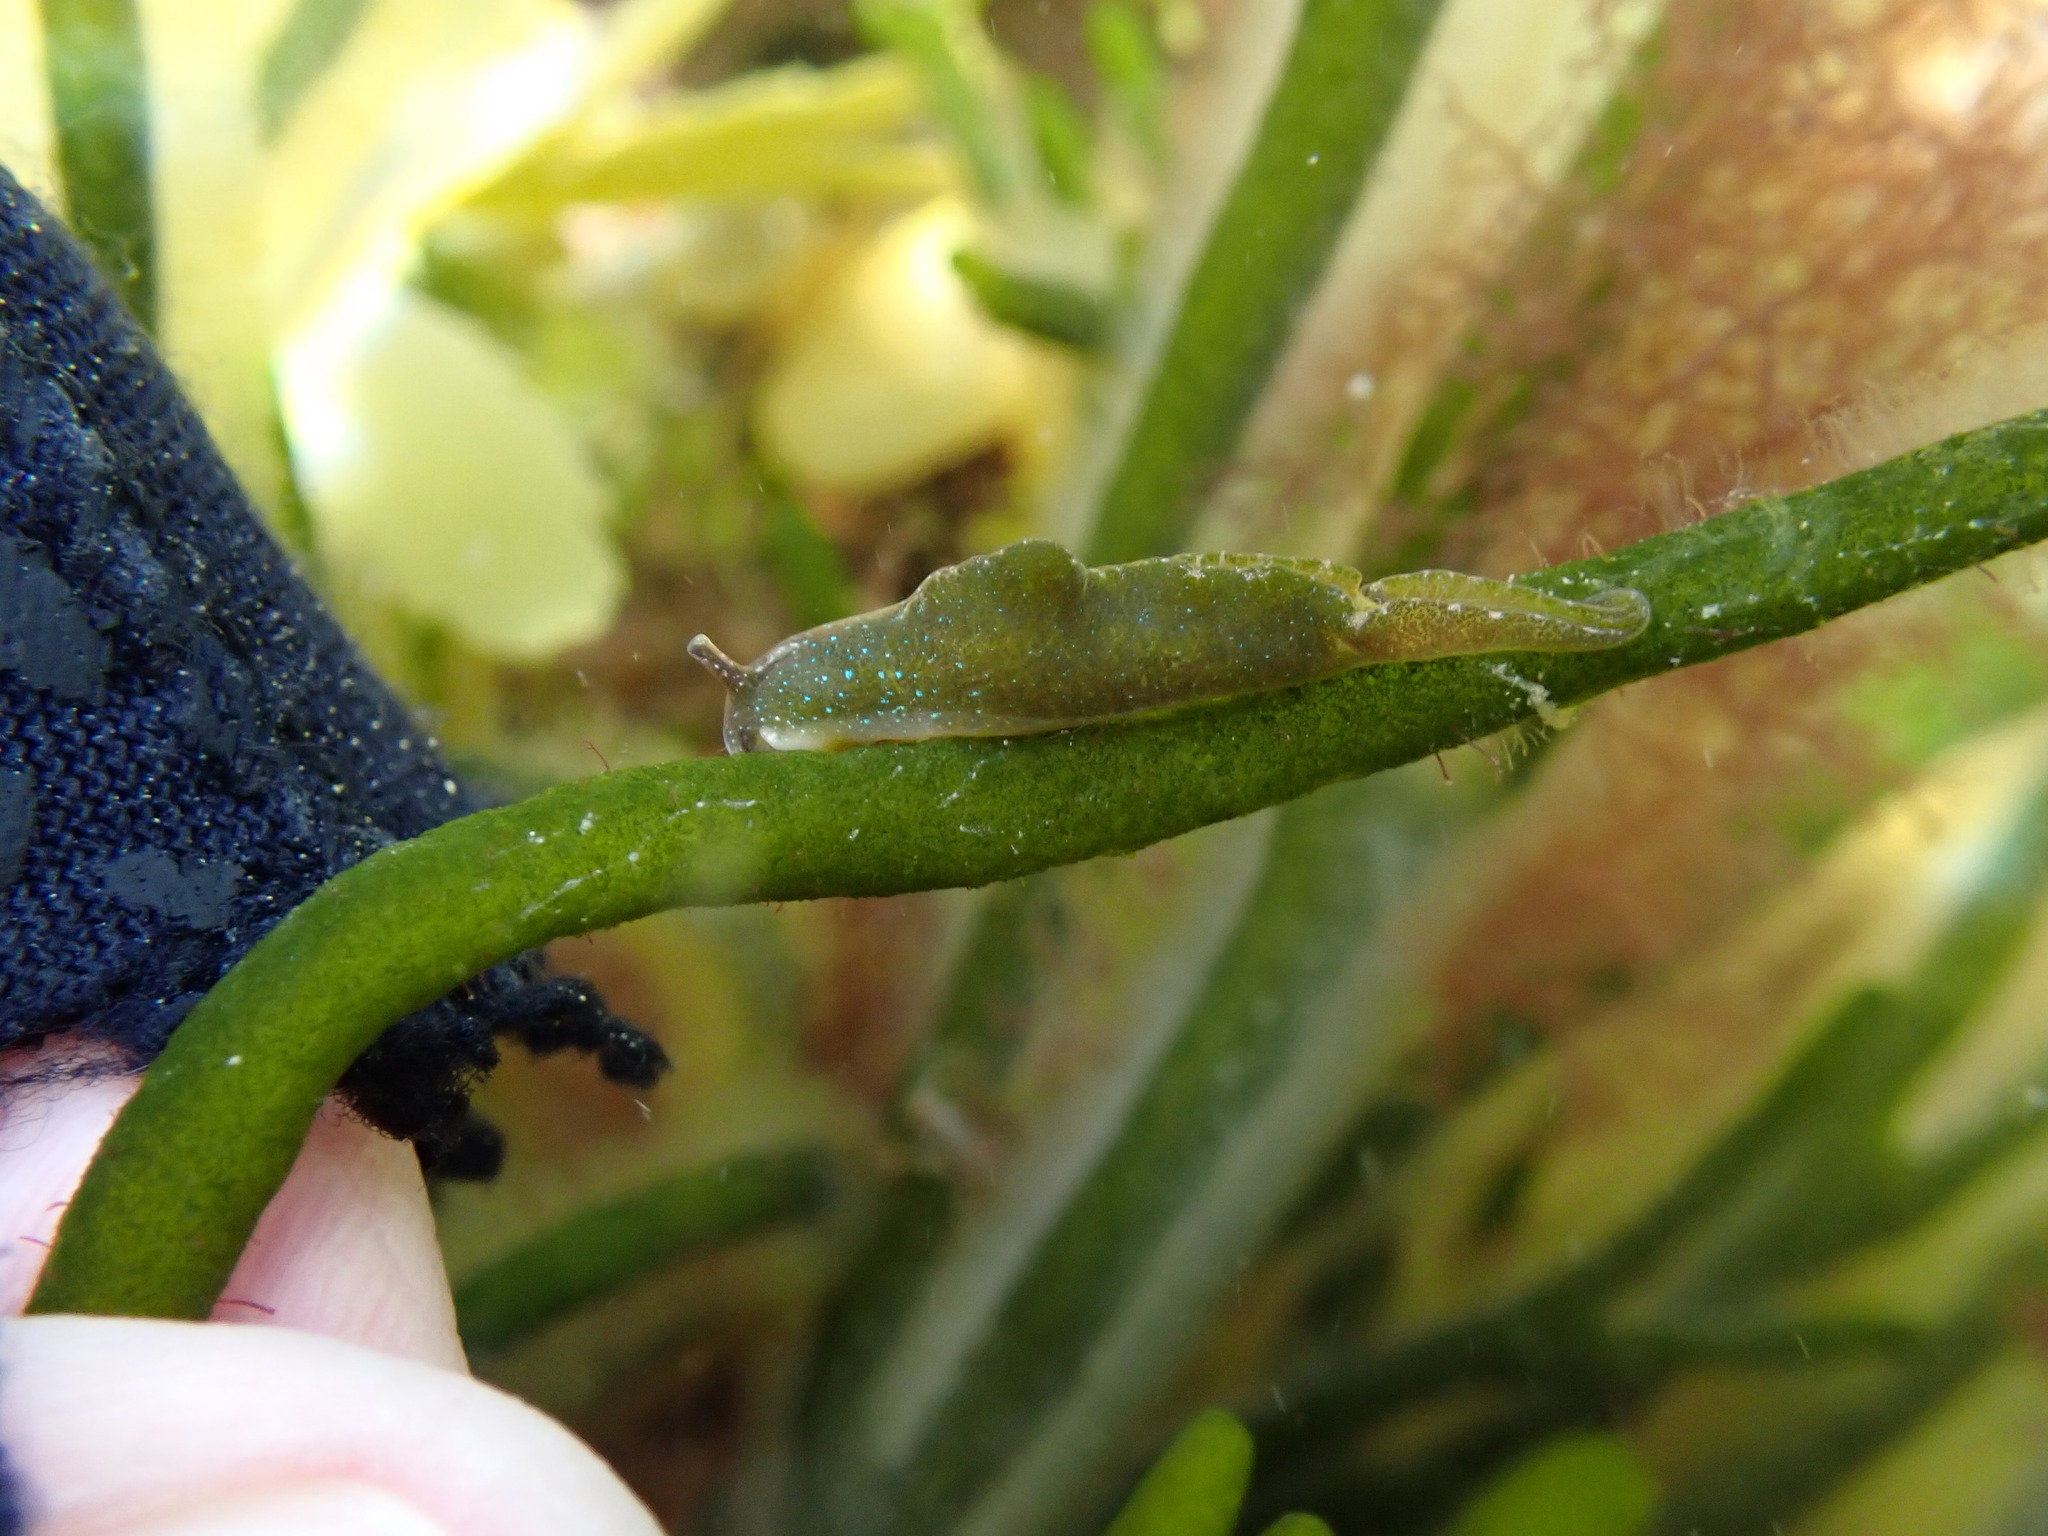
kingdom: Animalia
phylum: Mollusca
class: Gastropoda
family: Plakobranchidae
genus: Elysia
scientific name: Elysia viridis
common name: Green elysia
